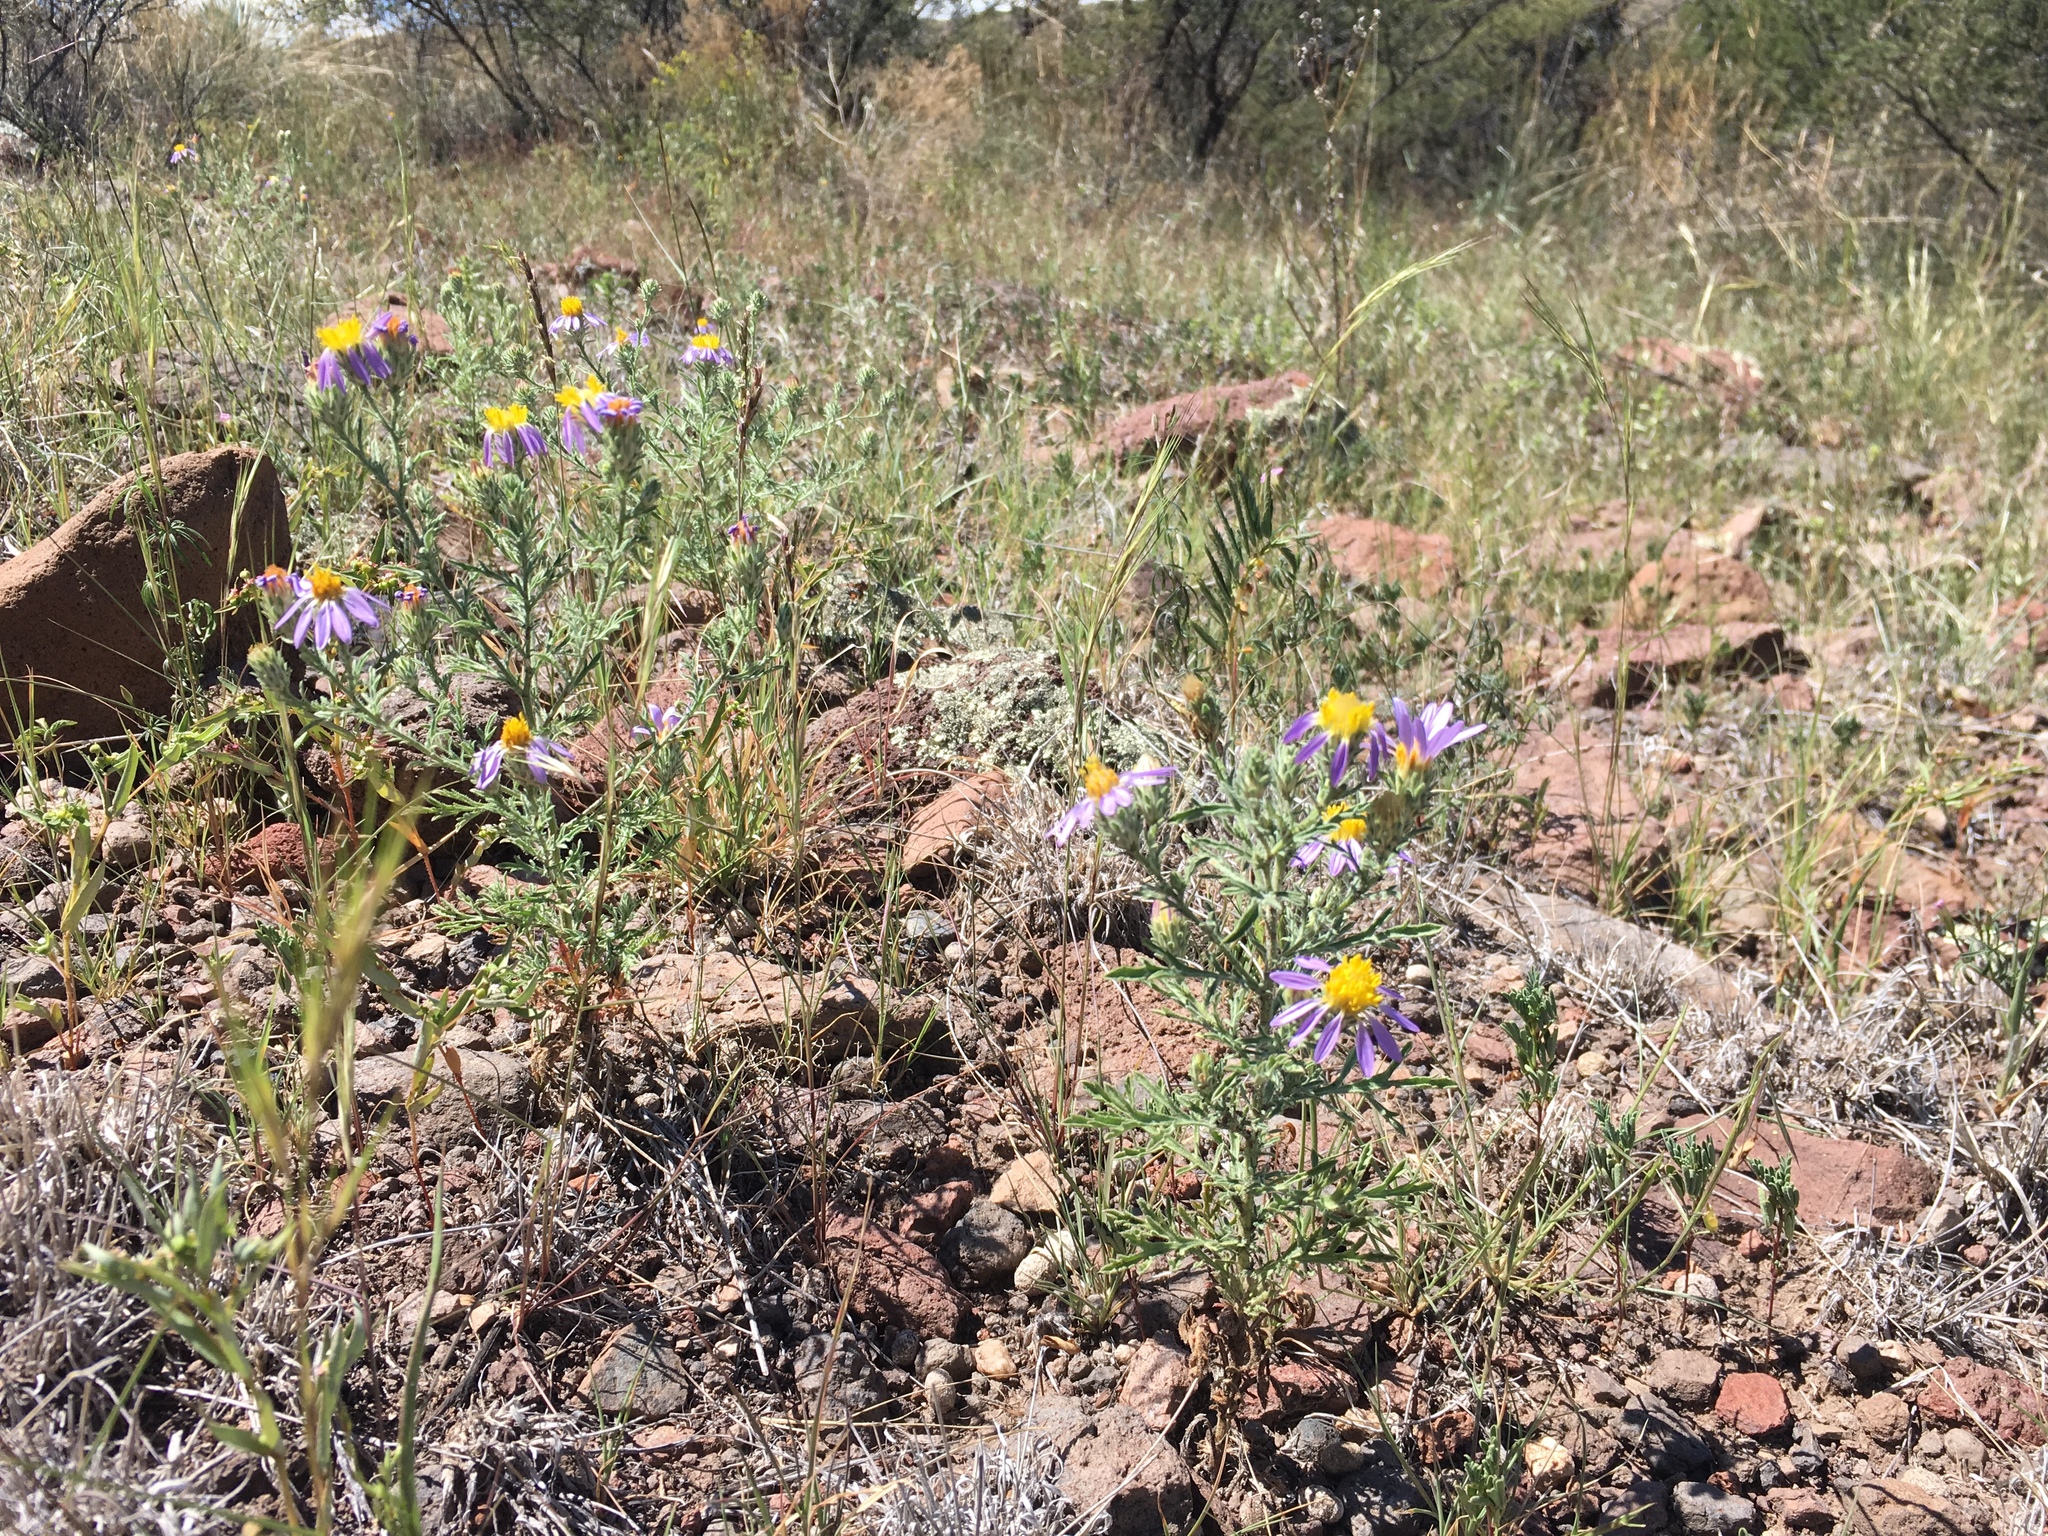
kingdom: Plantae
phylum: Tracheophyta
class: Magnoliopsida
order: Asterales
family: Asteraceae
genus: Machaeranthera
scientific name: Machaeranthera tanacetifolia
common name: Tansy-aster
